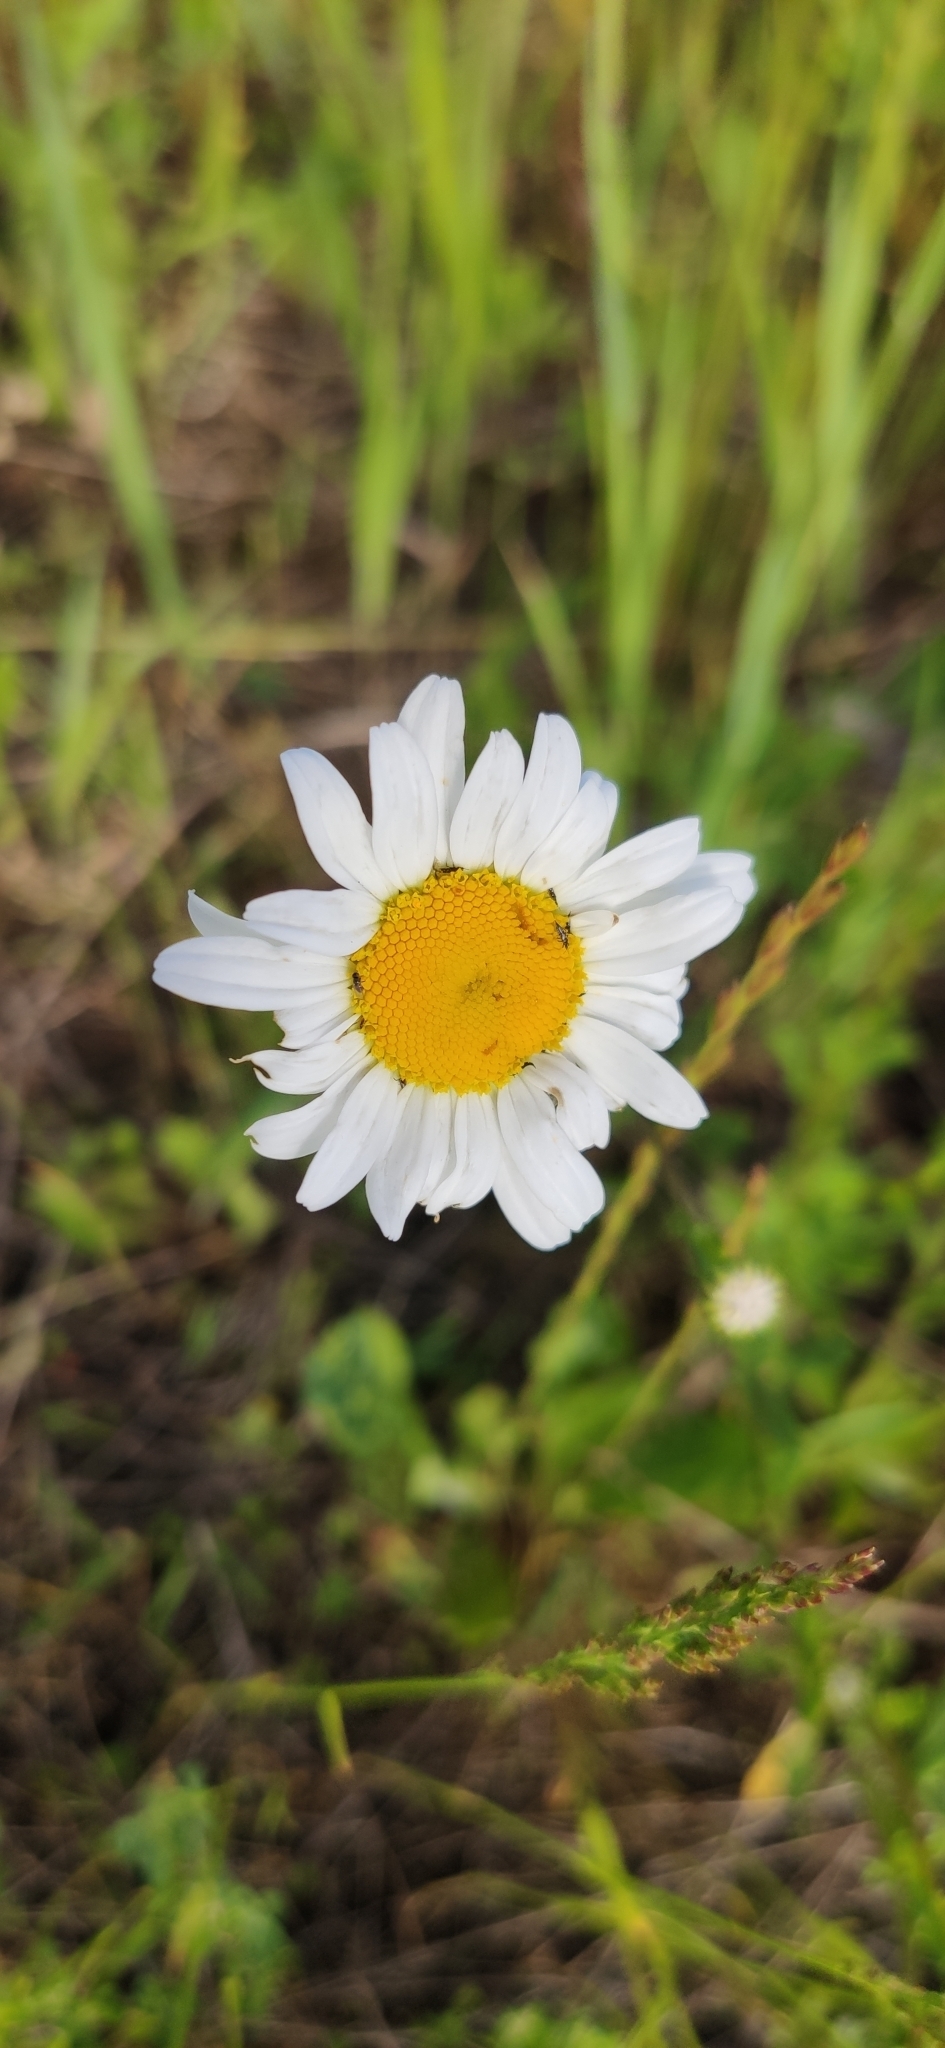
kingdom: Plantae
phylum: Tracheophyta
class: Magnoliopsida
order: Asterales
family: Asteraceae
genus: Leucanthemum
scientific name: Leucanthemum vulgare
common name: Oxeye daisy
